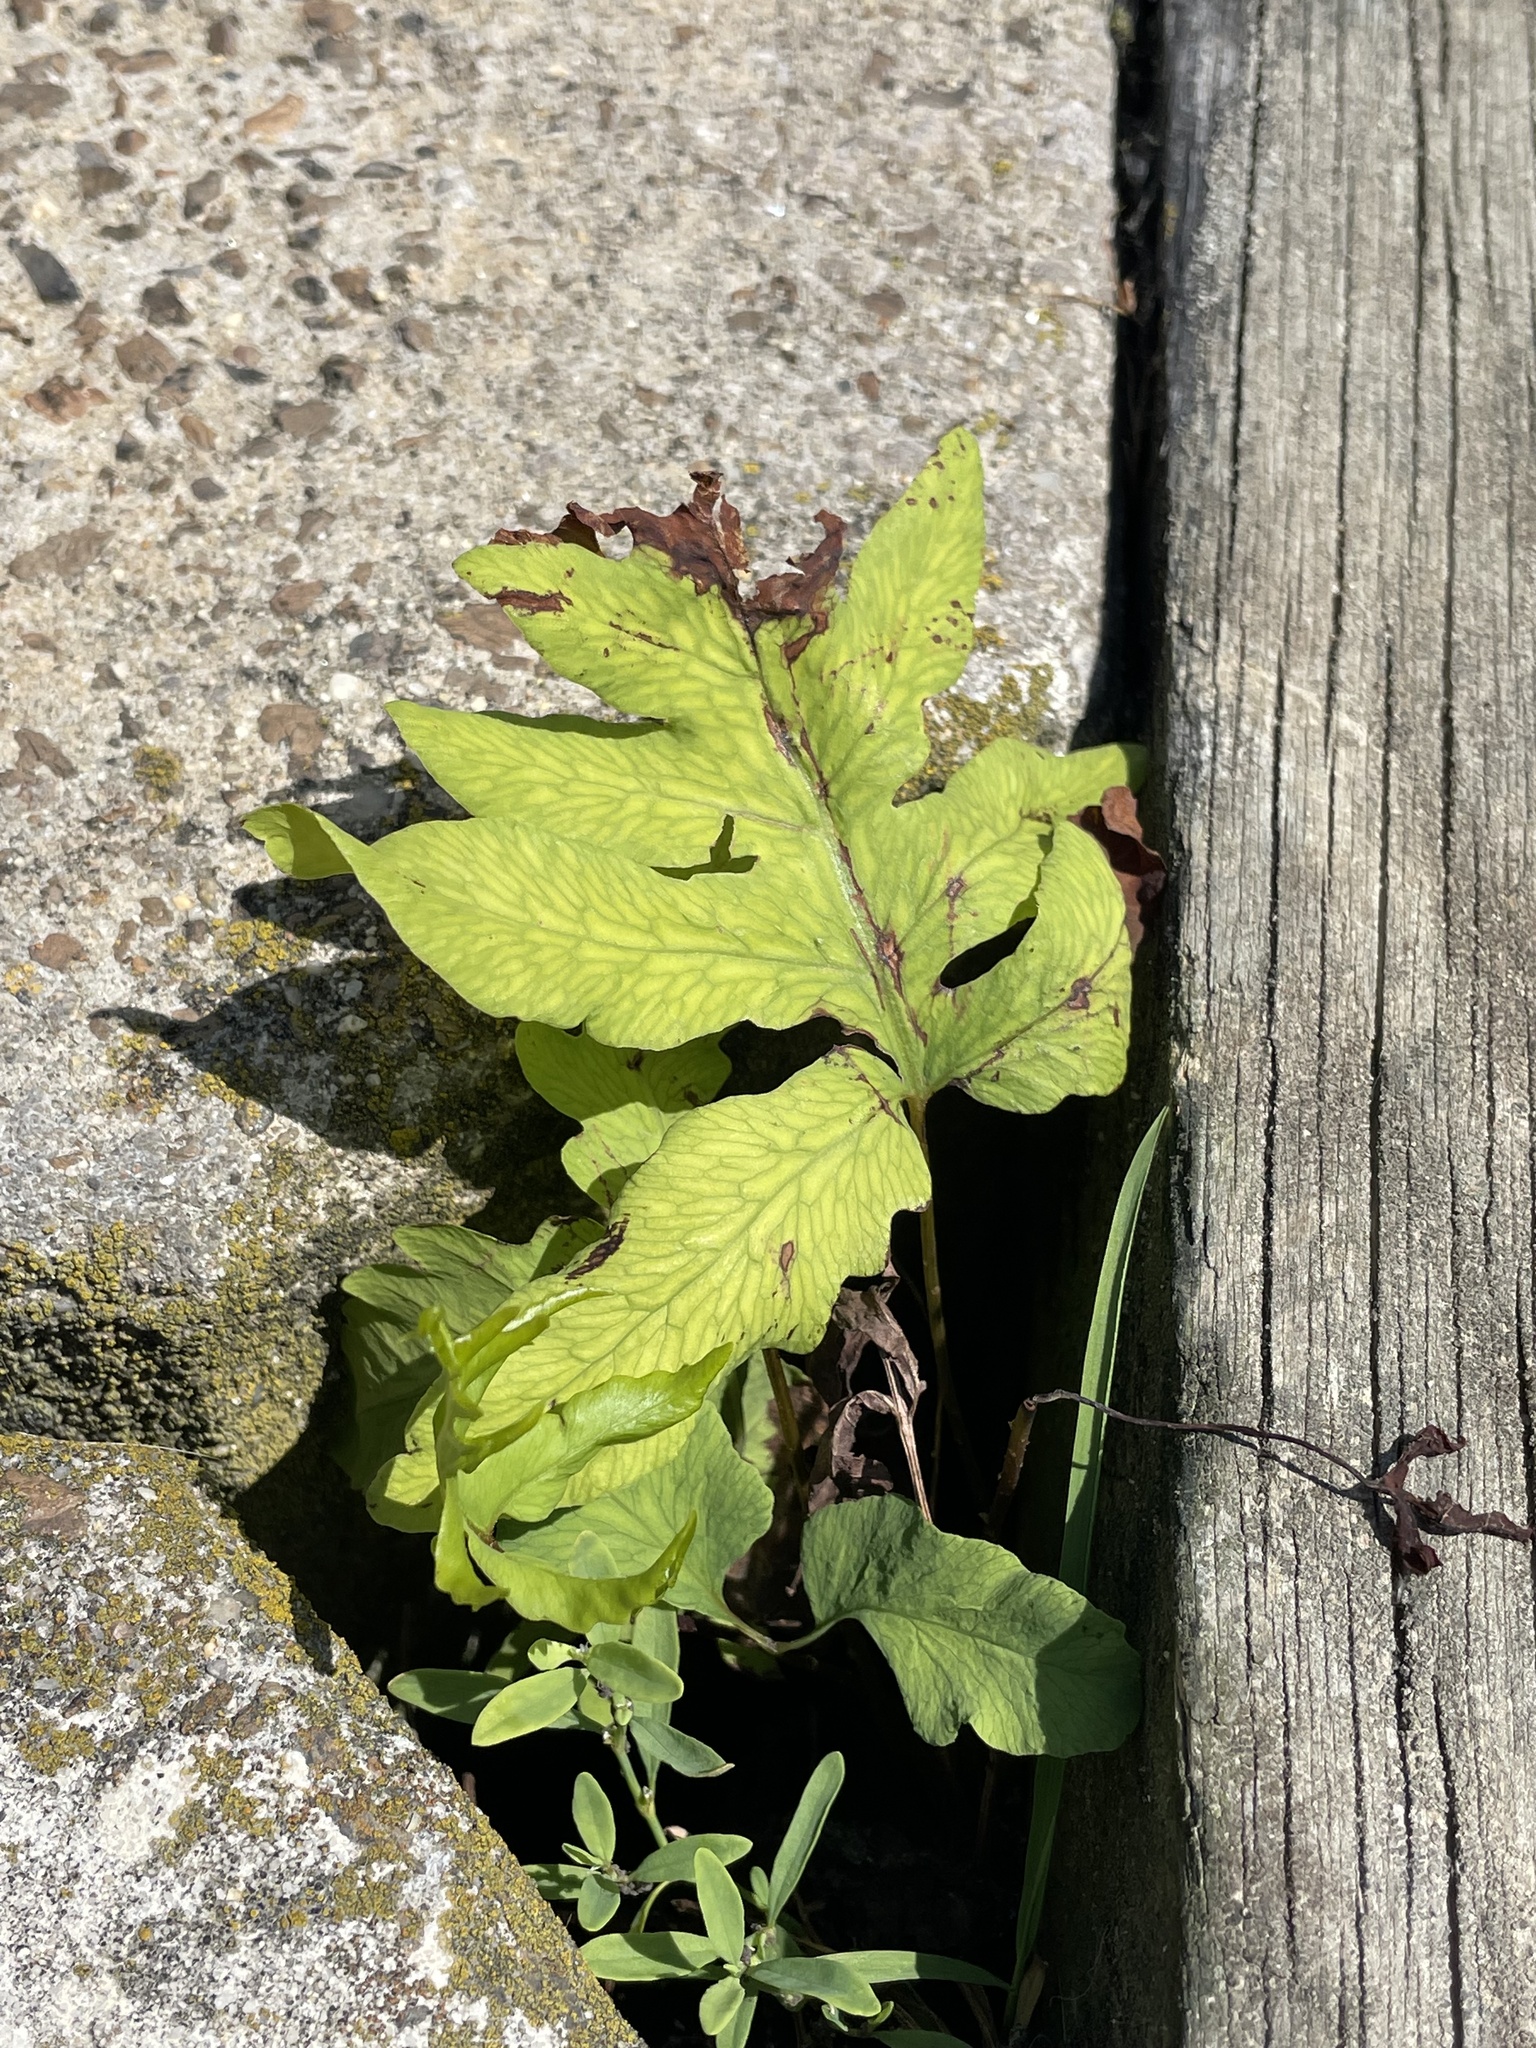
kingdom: Plantae
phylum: Tracheophyta
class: Polypodiopsida
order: Polypodiales
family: Onocleaceae
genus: Onoclea
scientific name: Onoclea sensibilis
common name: Sensitive fern
